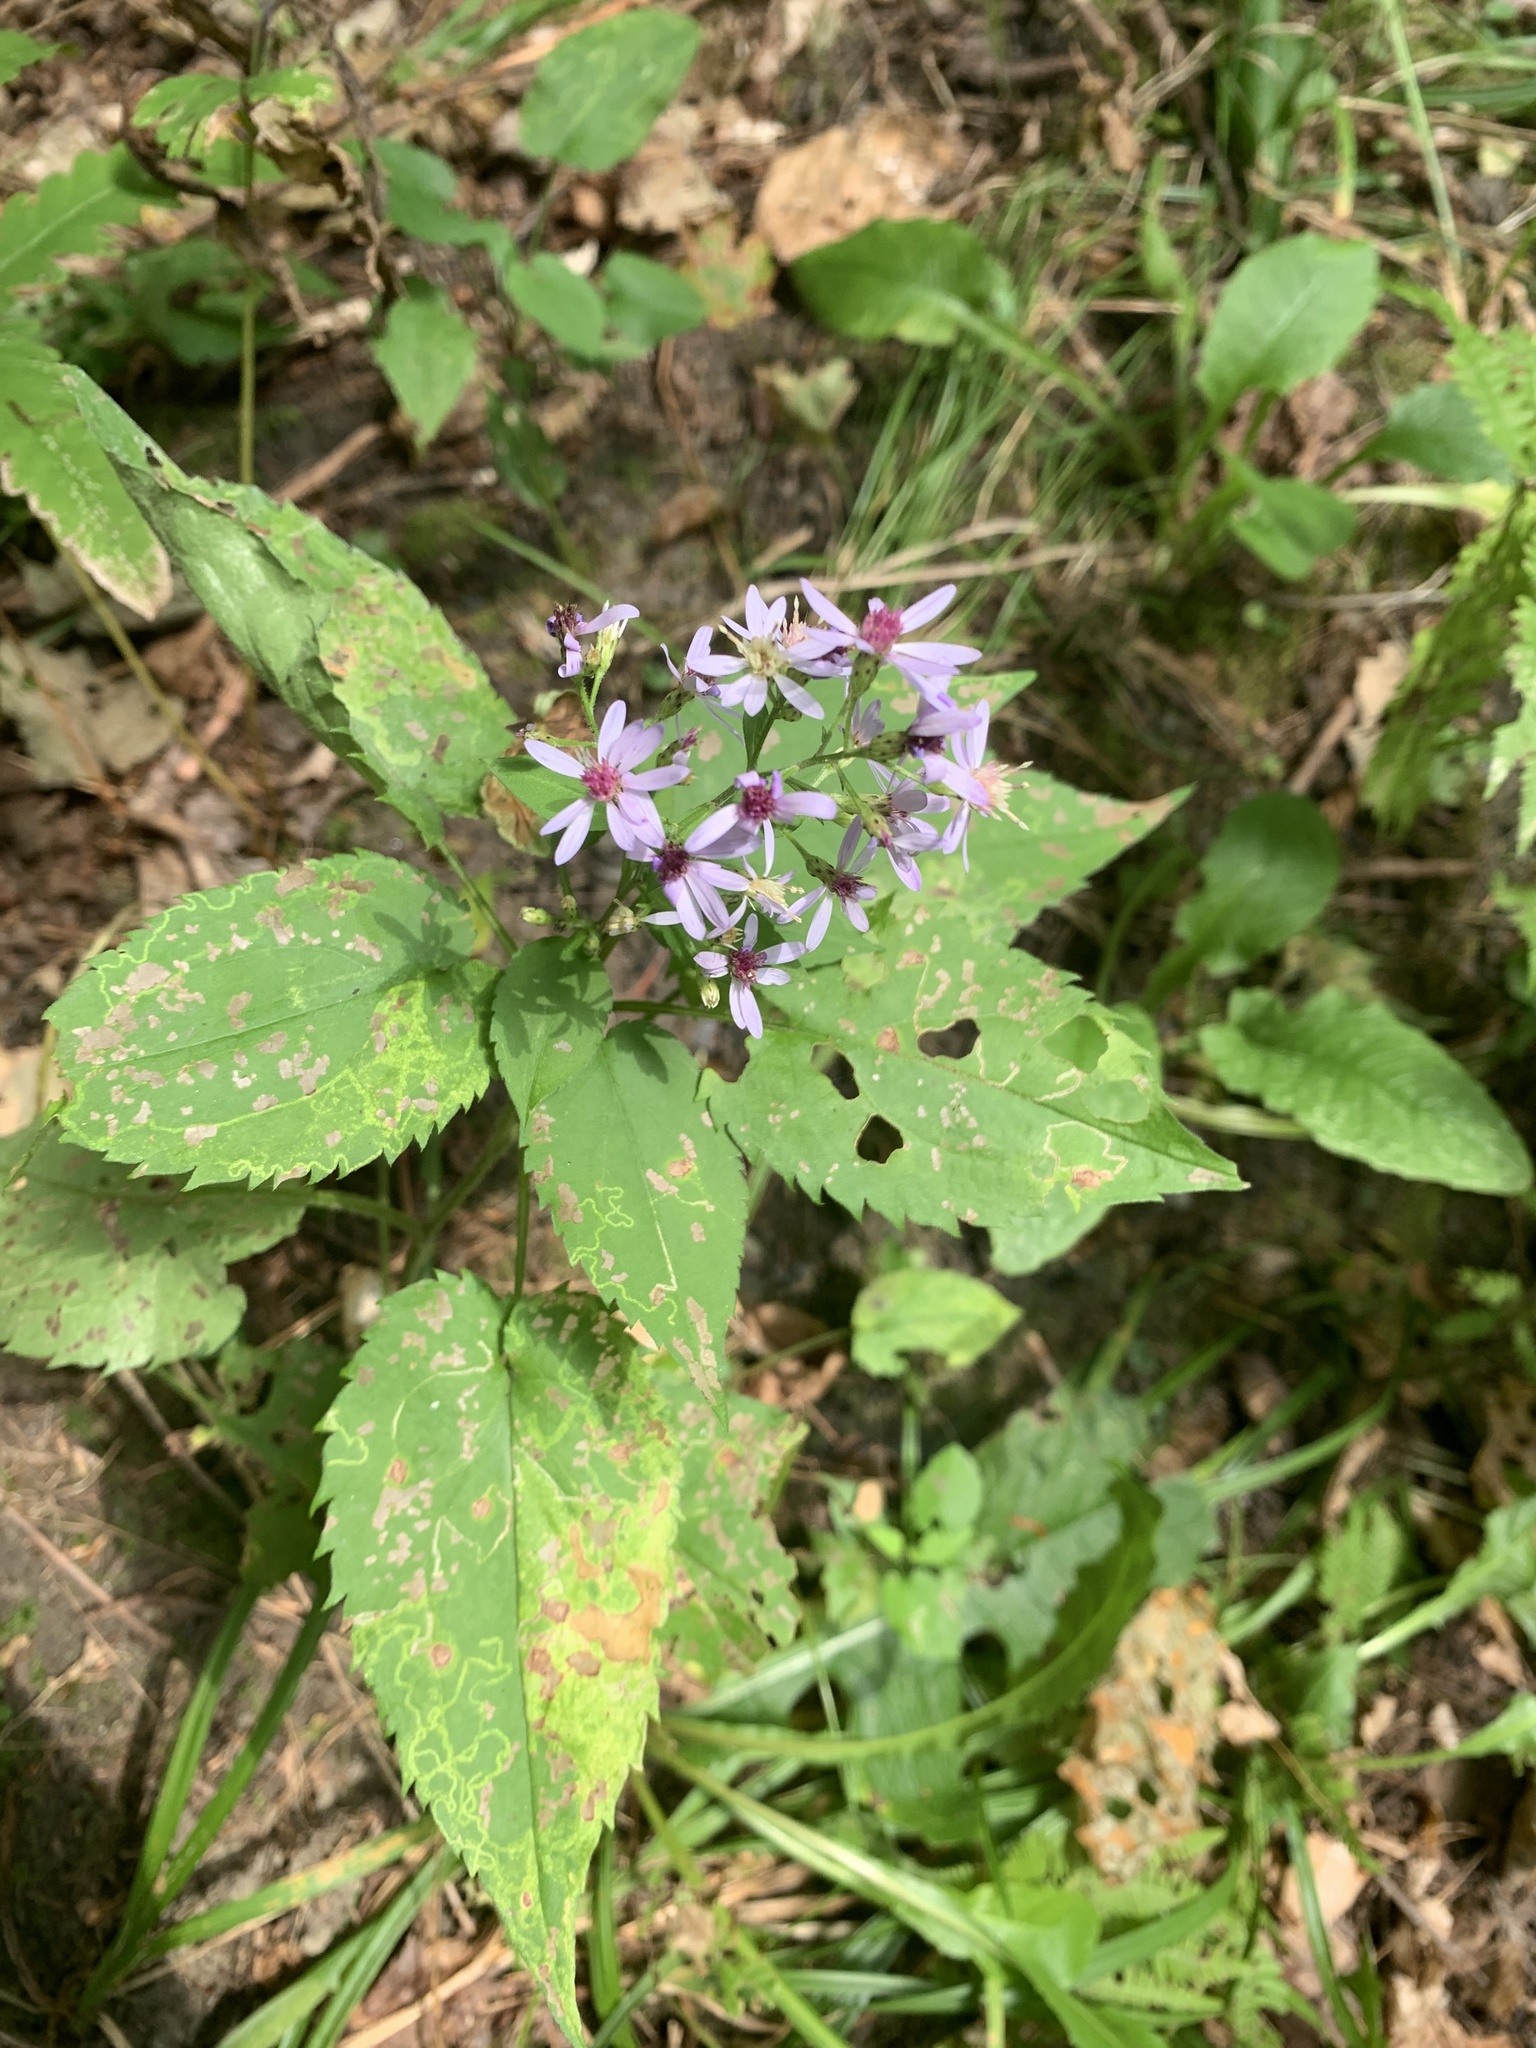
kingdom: Plantae
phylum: Tracheophyta
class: Magnoliopsida
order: Asterales
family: Asteraceae
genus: Symphyotrichum
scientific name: Symphyotrichum cordifolium
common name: Beeweed
